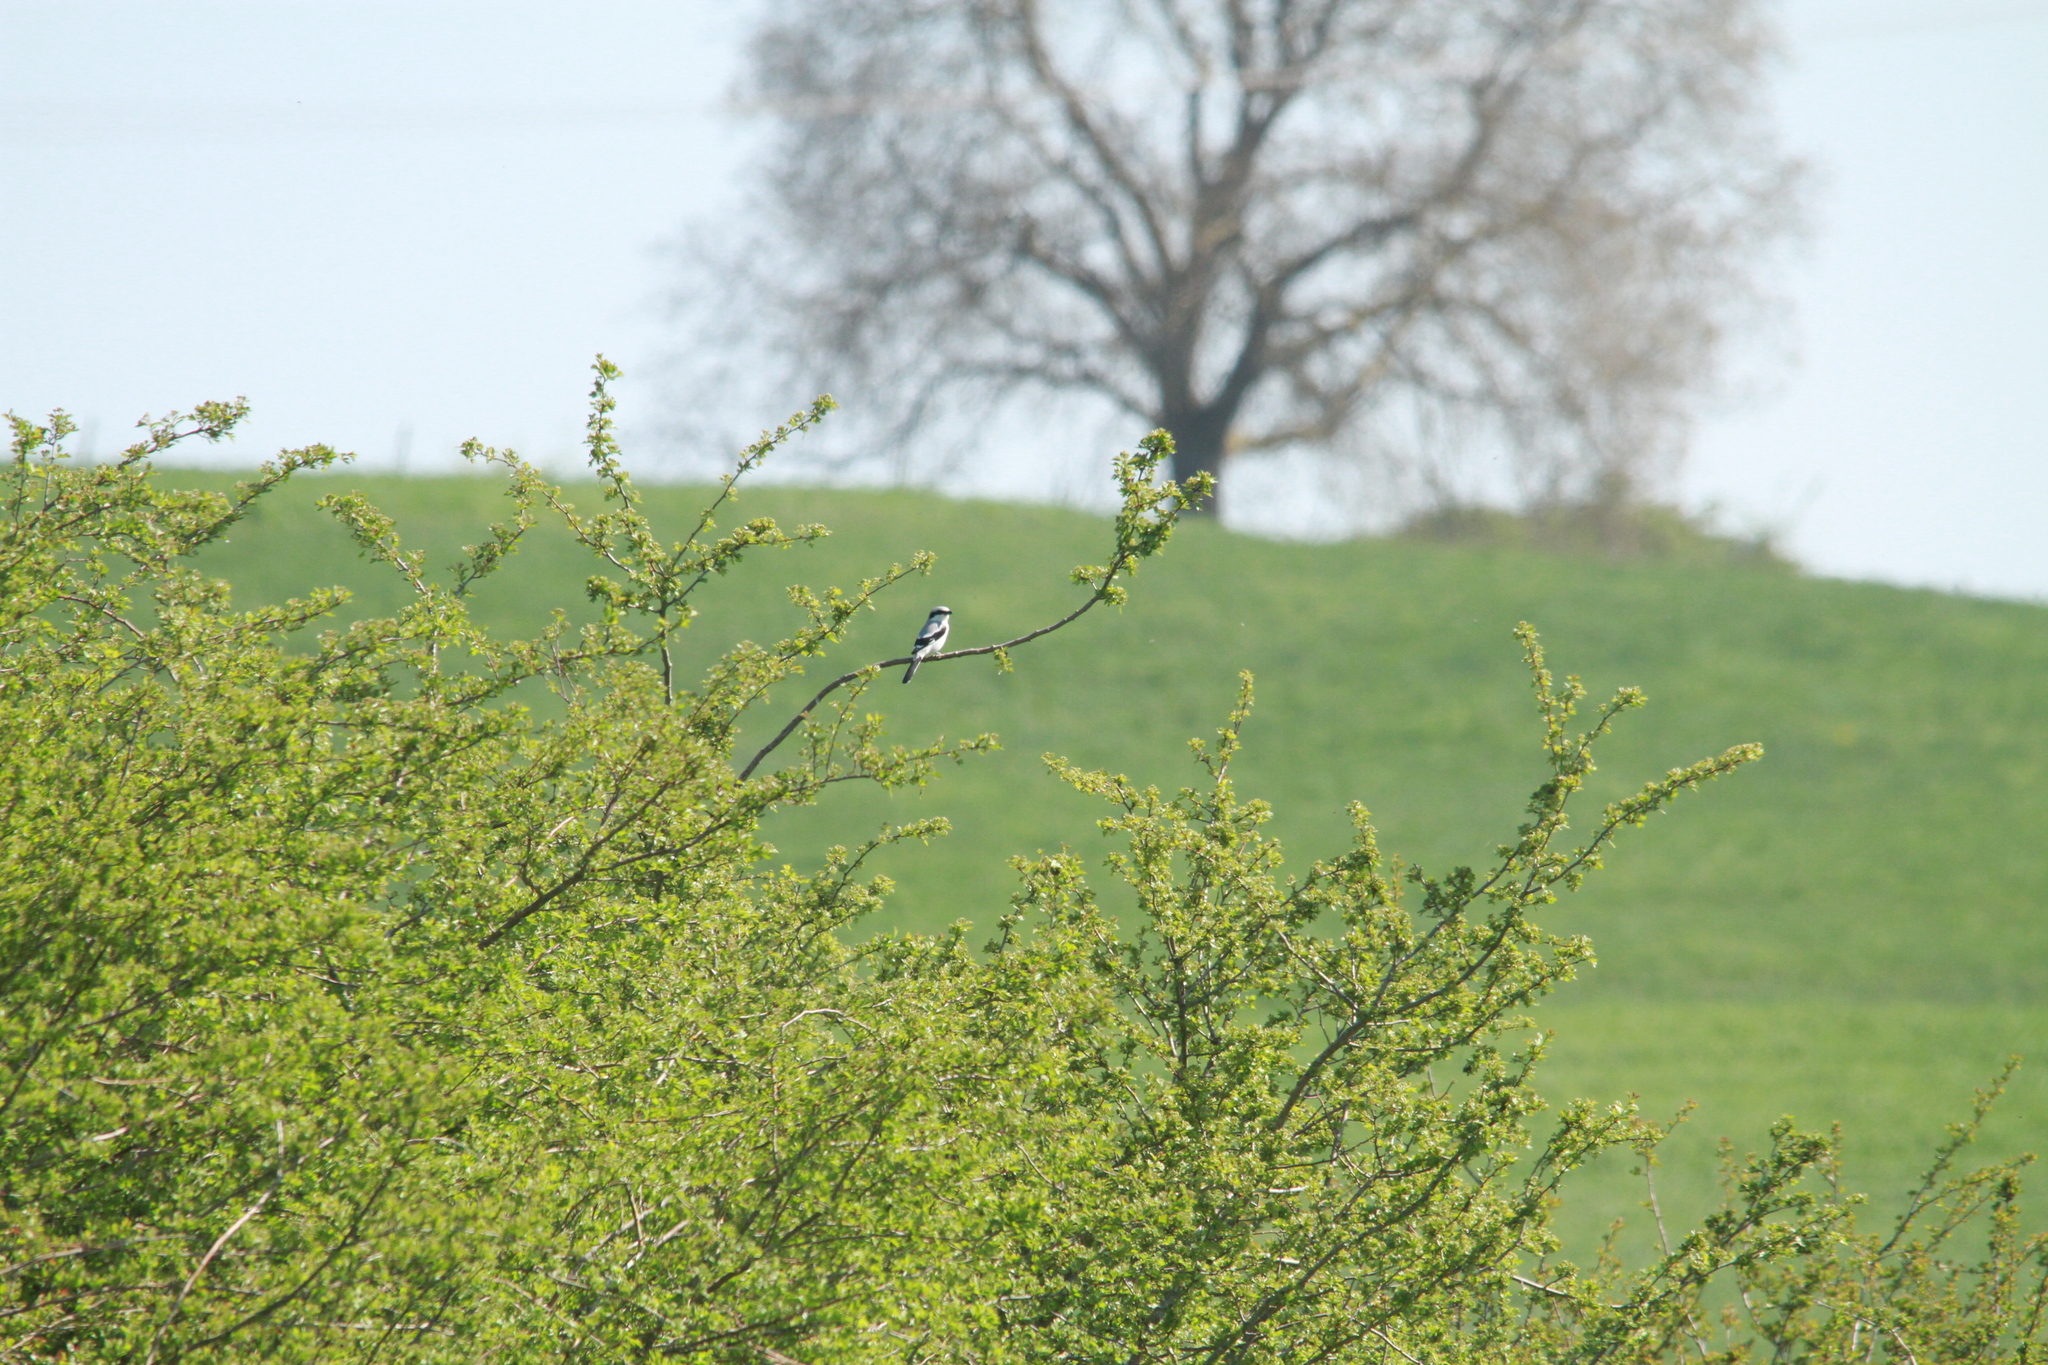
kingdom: Animalia
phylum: Chordata
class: Aves
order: Passeriformes
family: Laniidae
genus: Lanius
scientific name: Lanius excubitor
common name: Great grey shrike
